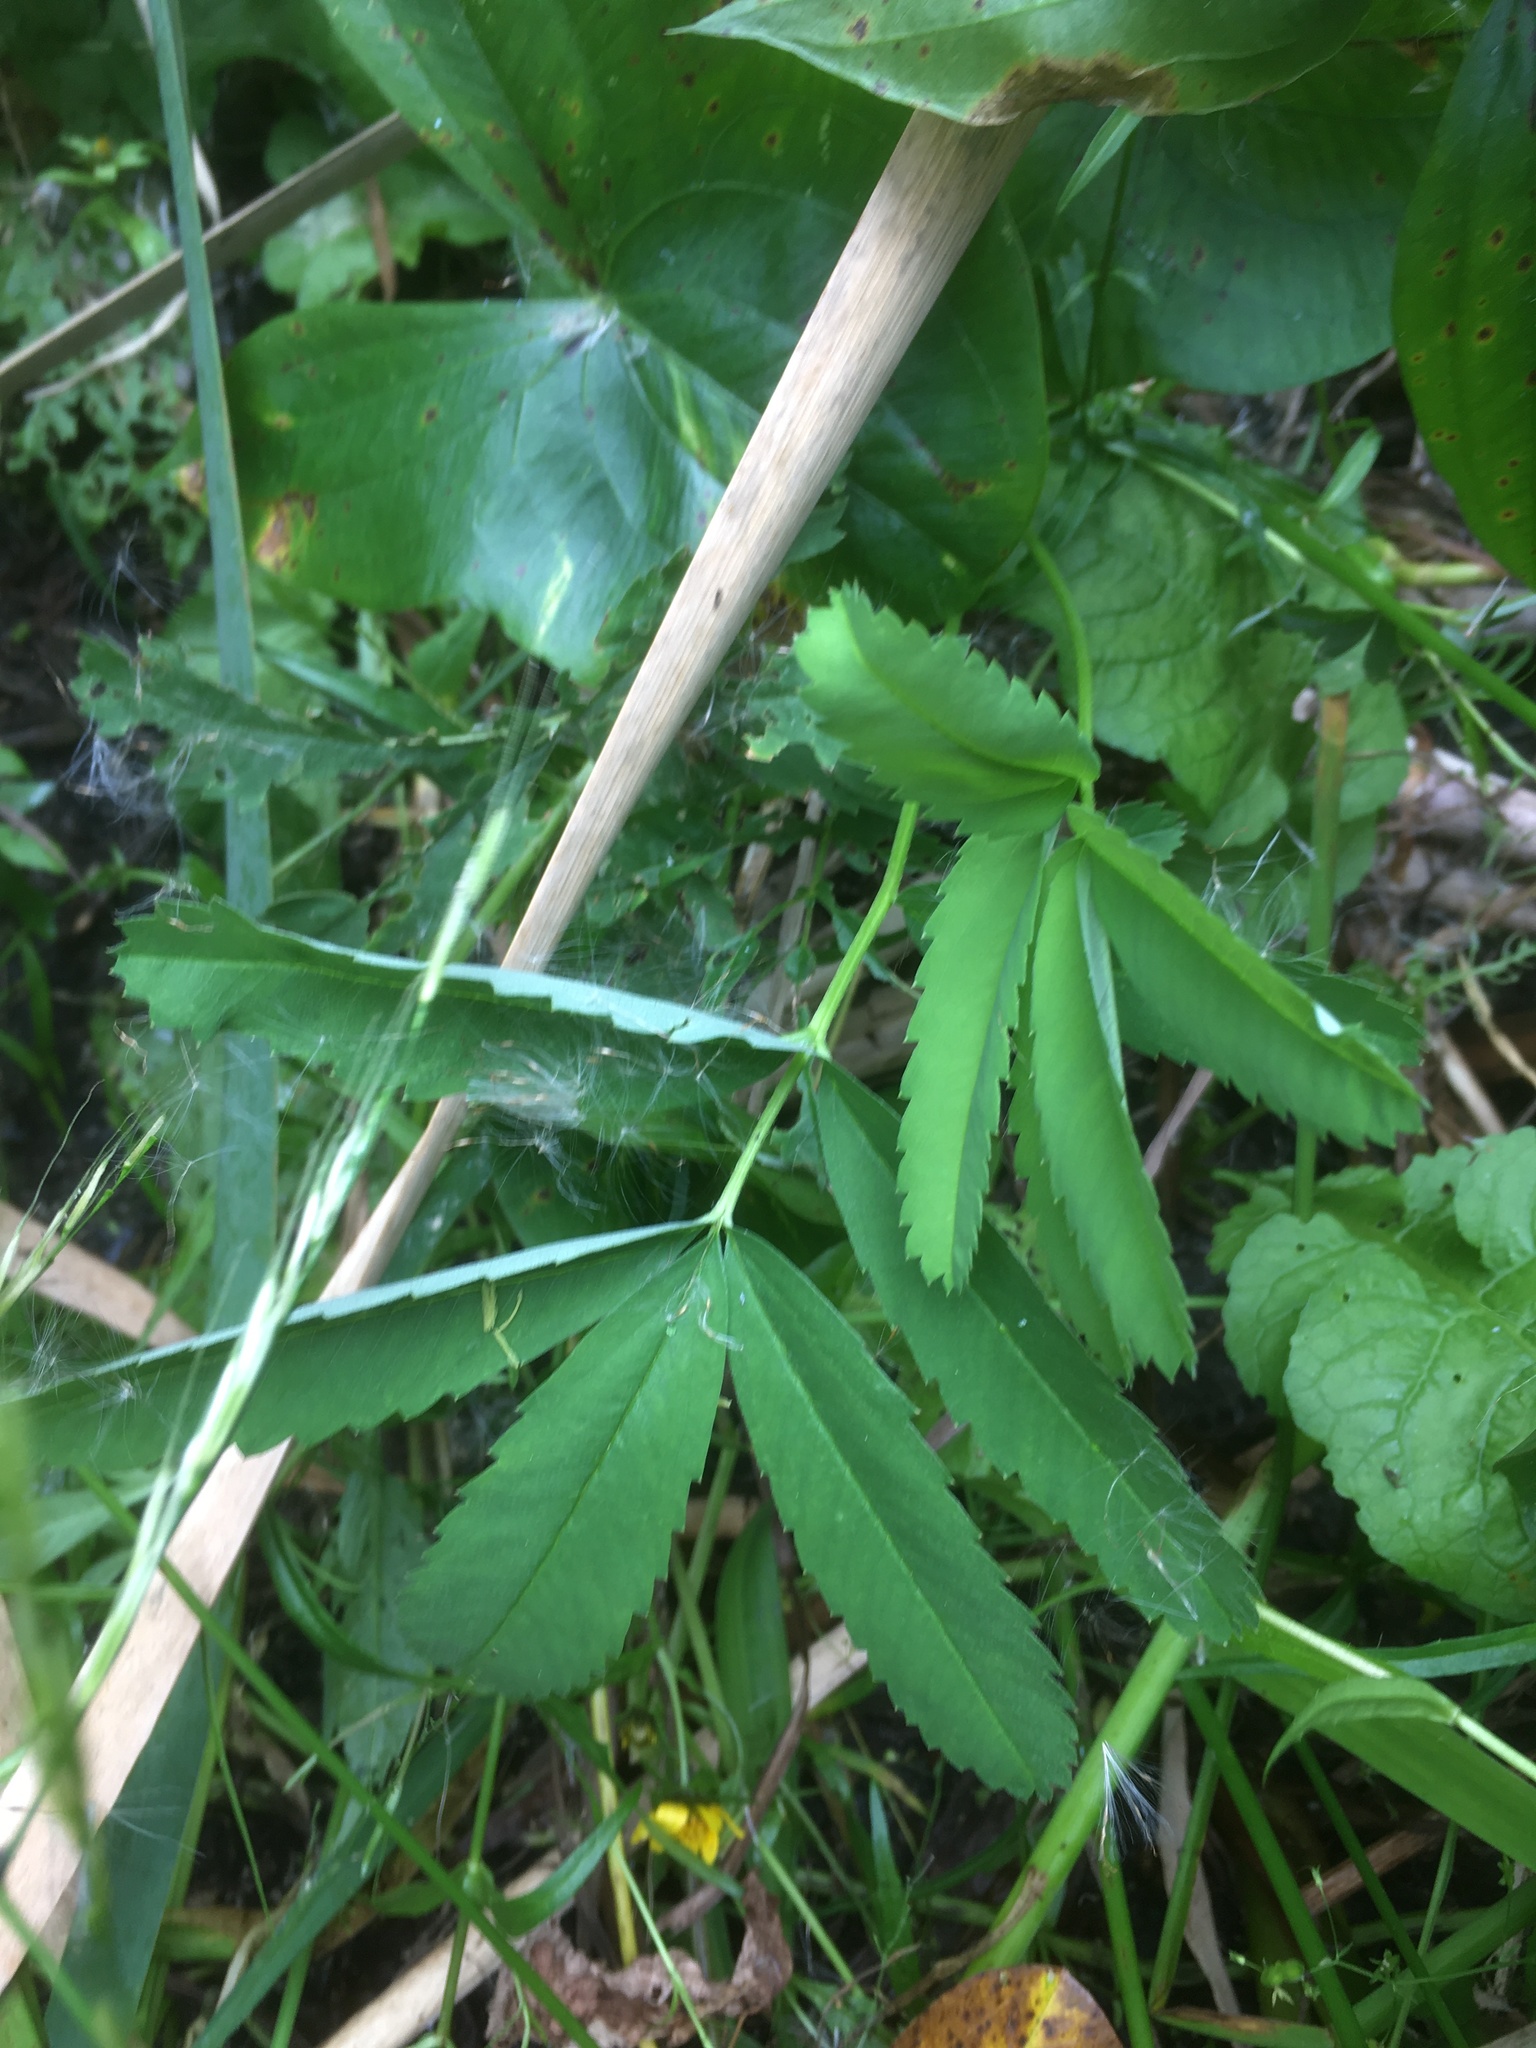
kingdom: Plantae
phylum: Tracheophyta
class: Magnoliopsida
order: Rosales
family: Rosaceae
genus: Comarum
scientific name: Comarum palustre
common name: Marsh cinquefoil
